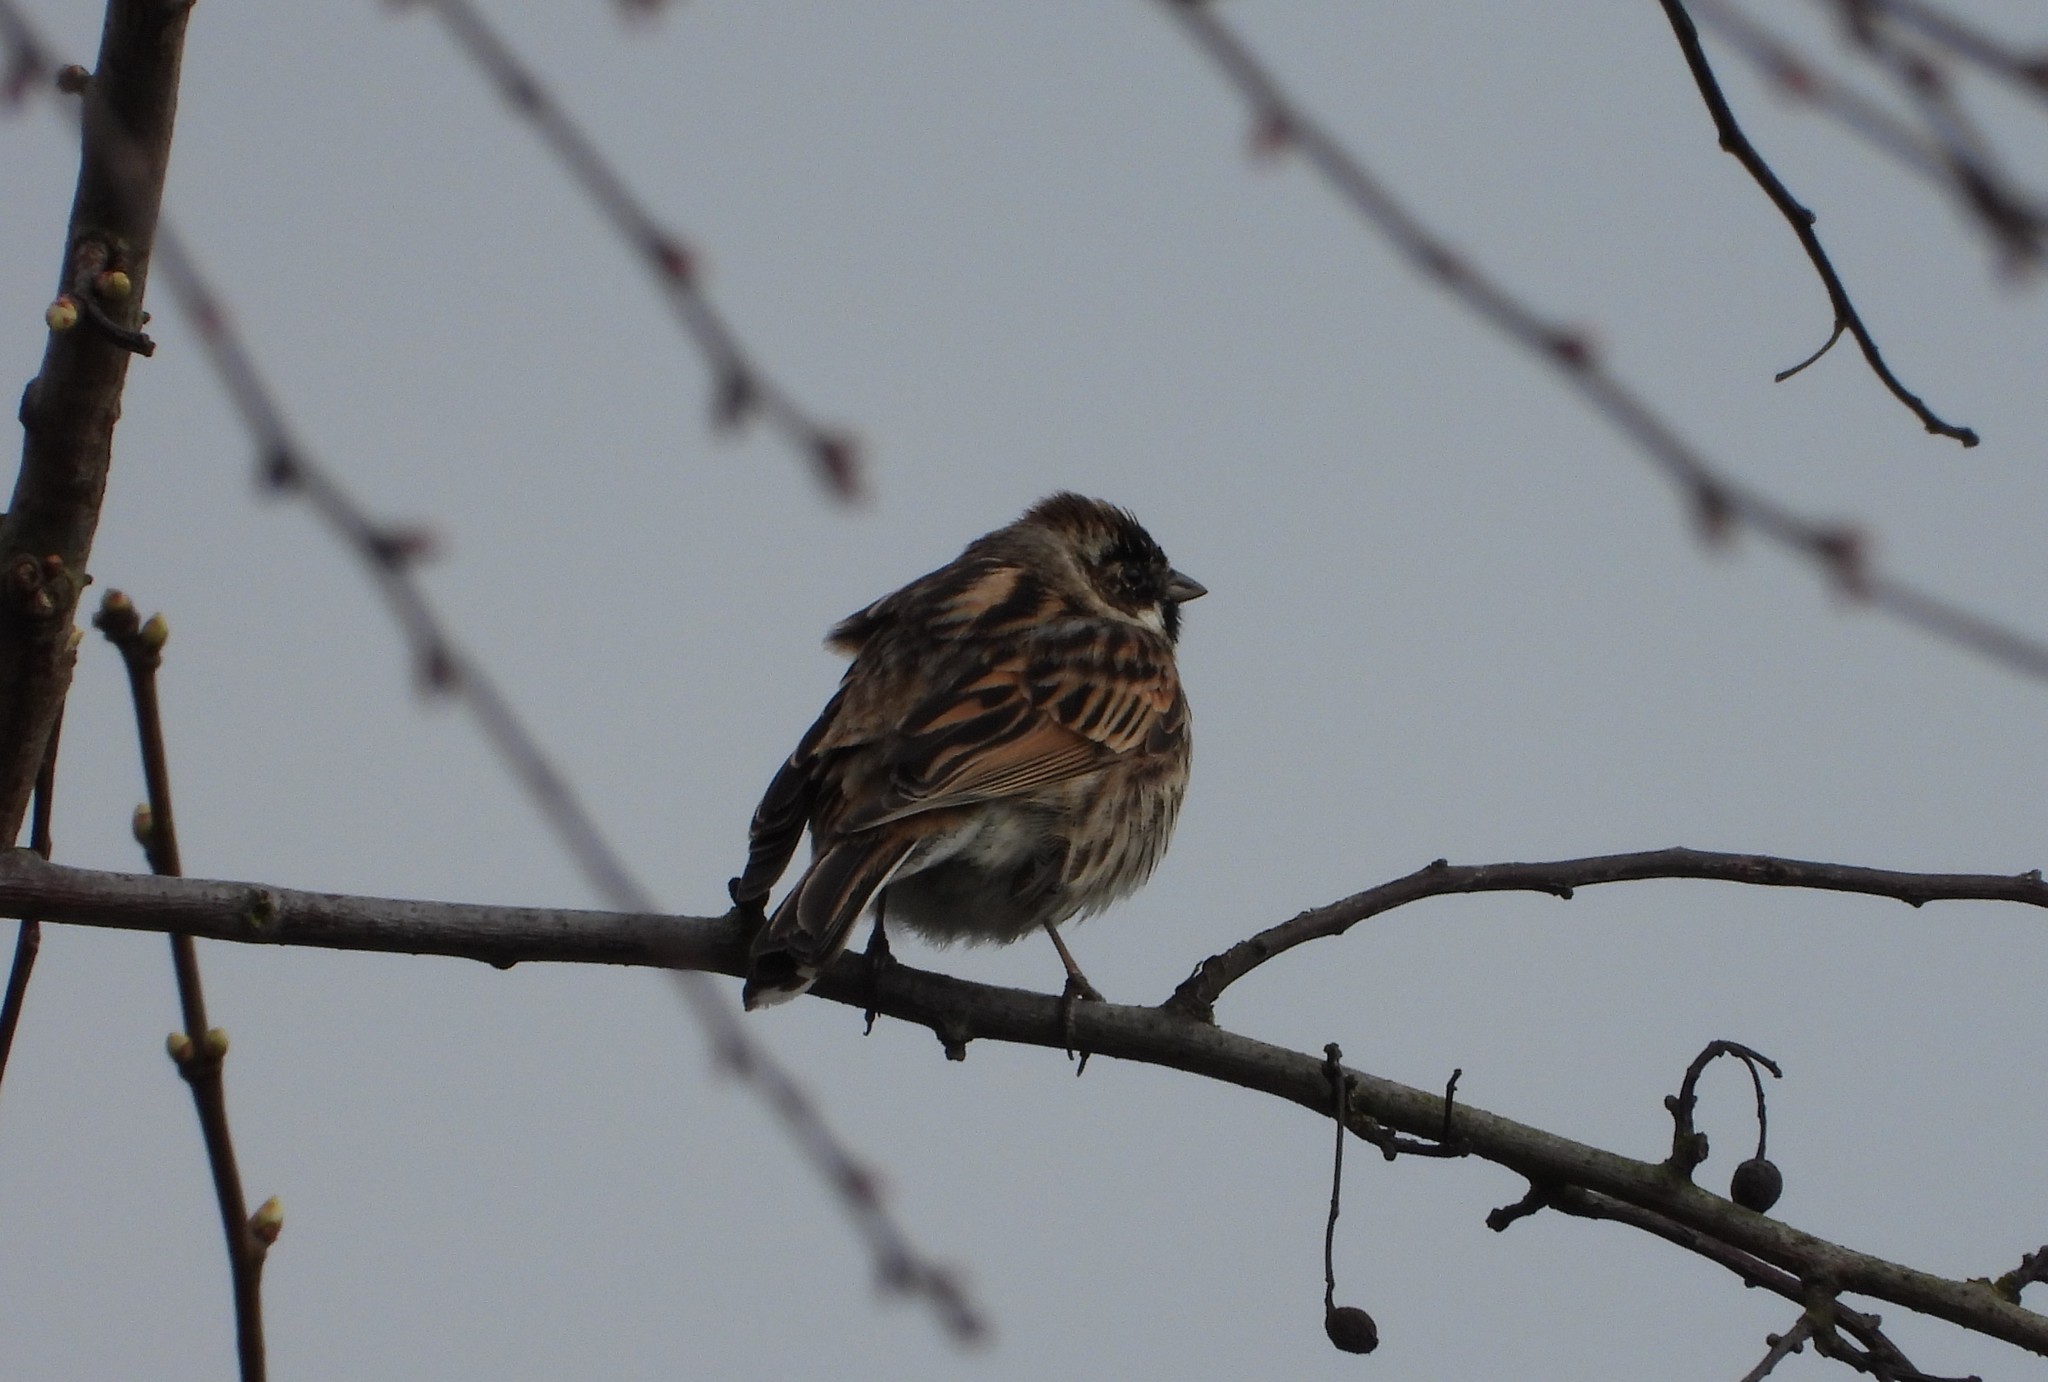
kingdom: Animalia
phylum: Chordata
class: Aves
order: Passeriformes
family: Emberizidae
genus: Emberiza
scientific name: Emberiza schoeniclus
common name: Reed bunting
